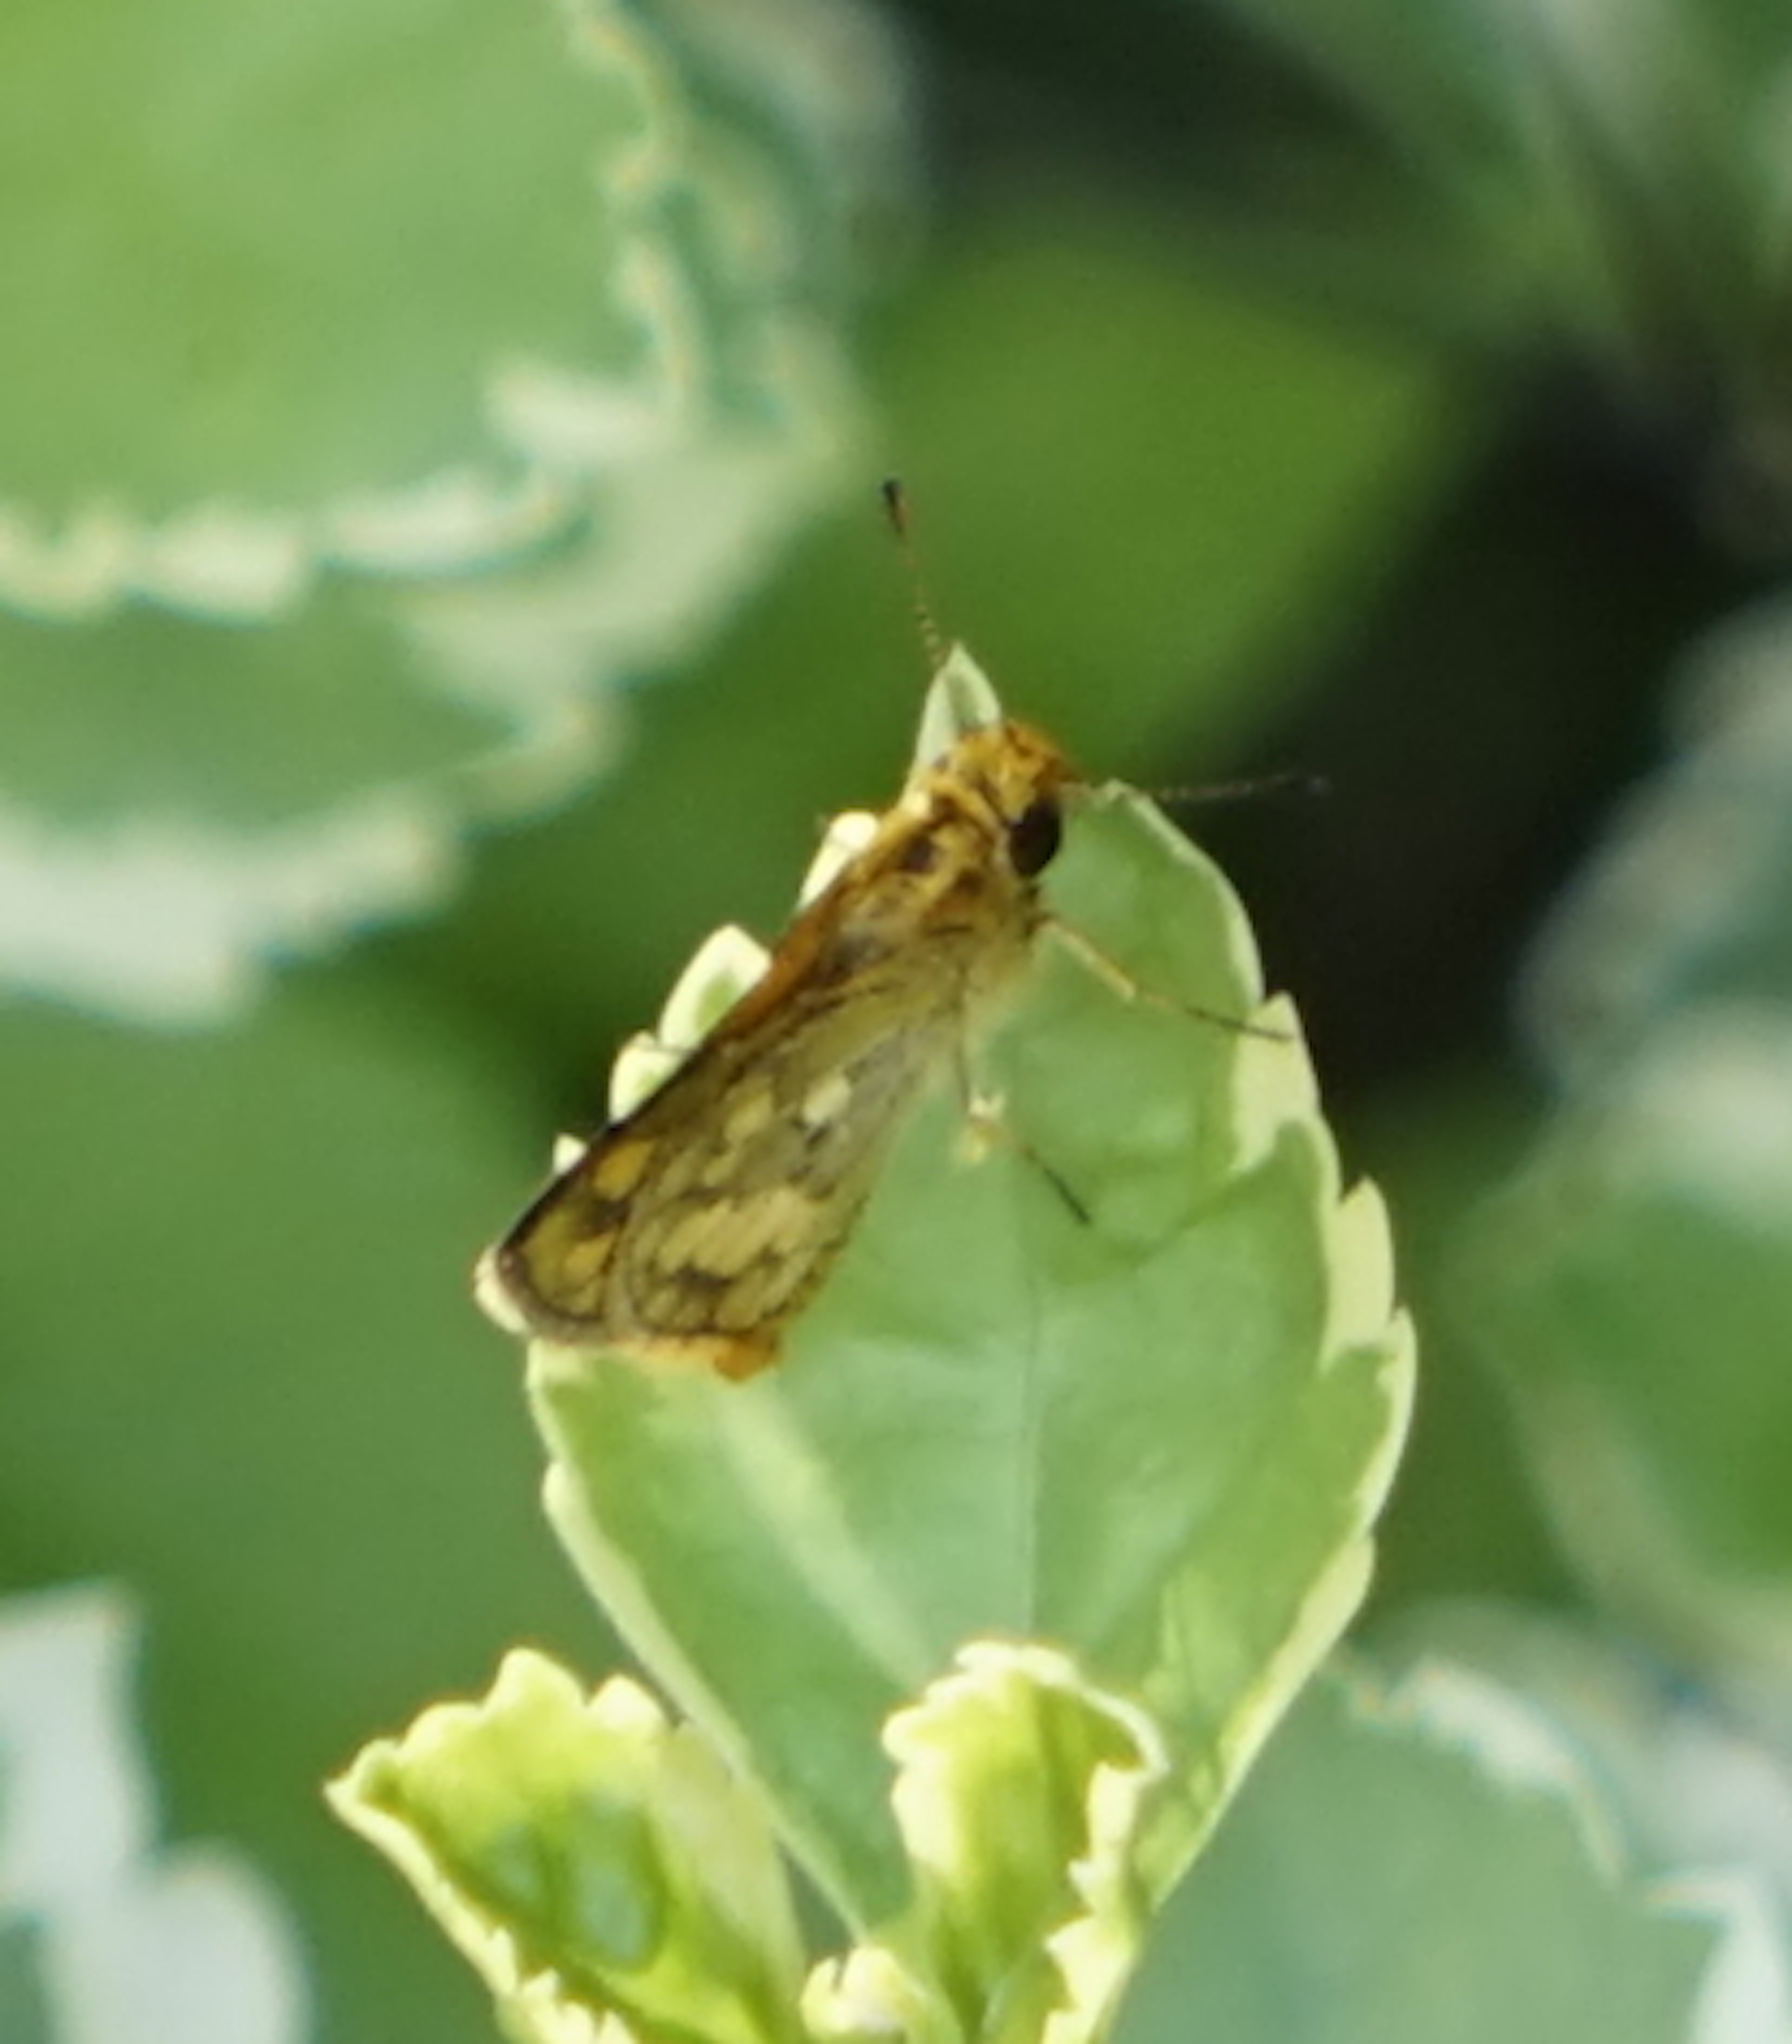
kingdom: Animalia
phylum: Arthropoda
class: Insecta
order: Lepidoptera
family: Hesperiidae
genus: Taractrocera
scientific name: Taractrocera
